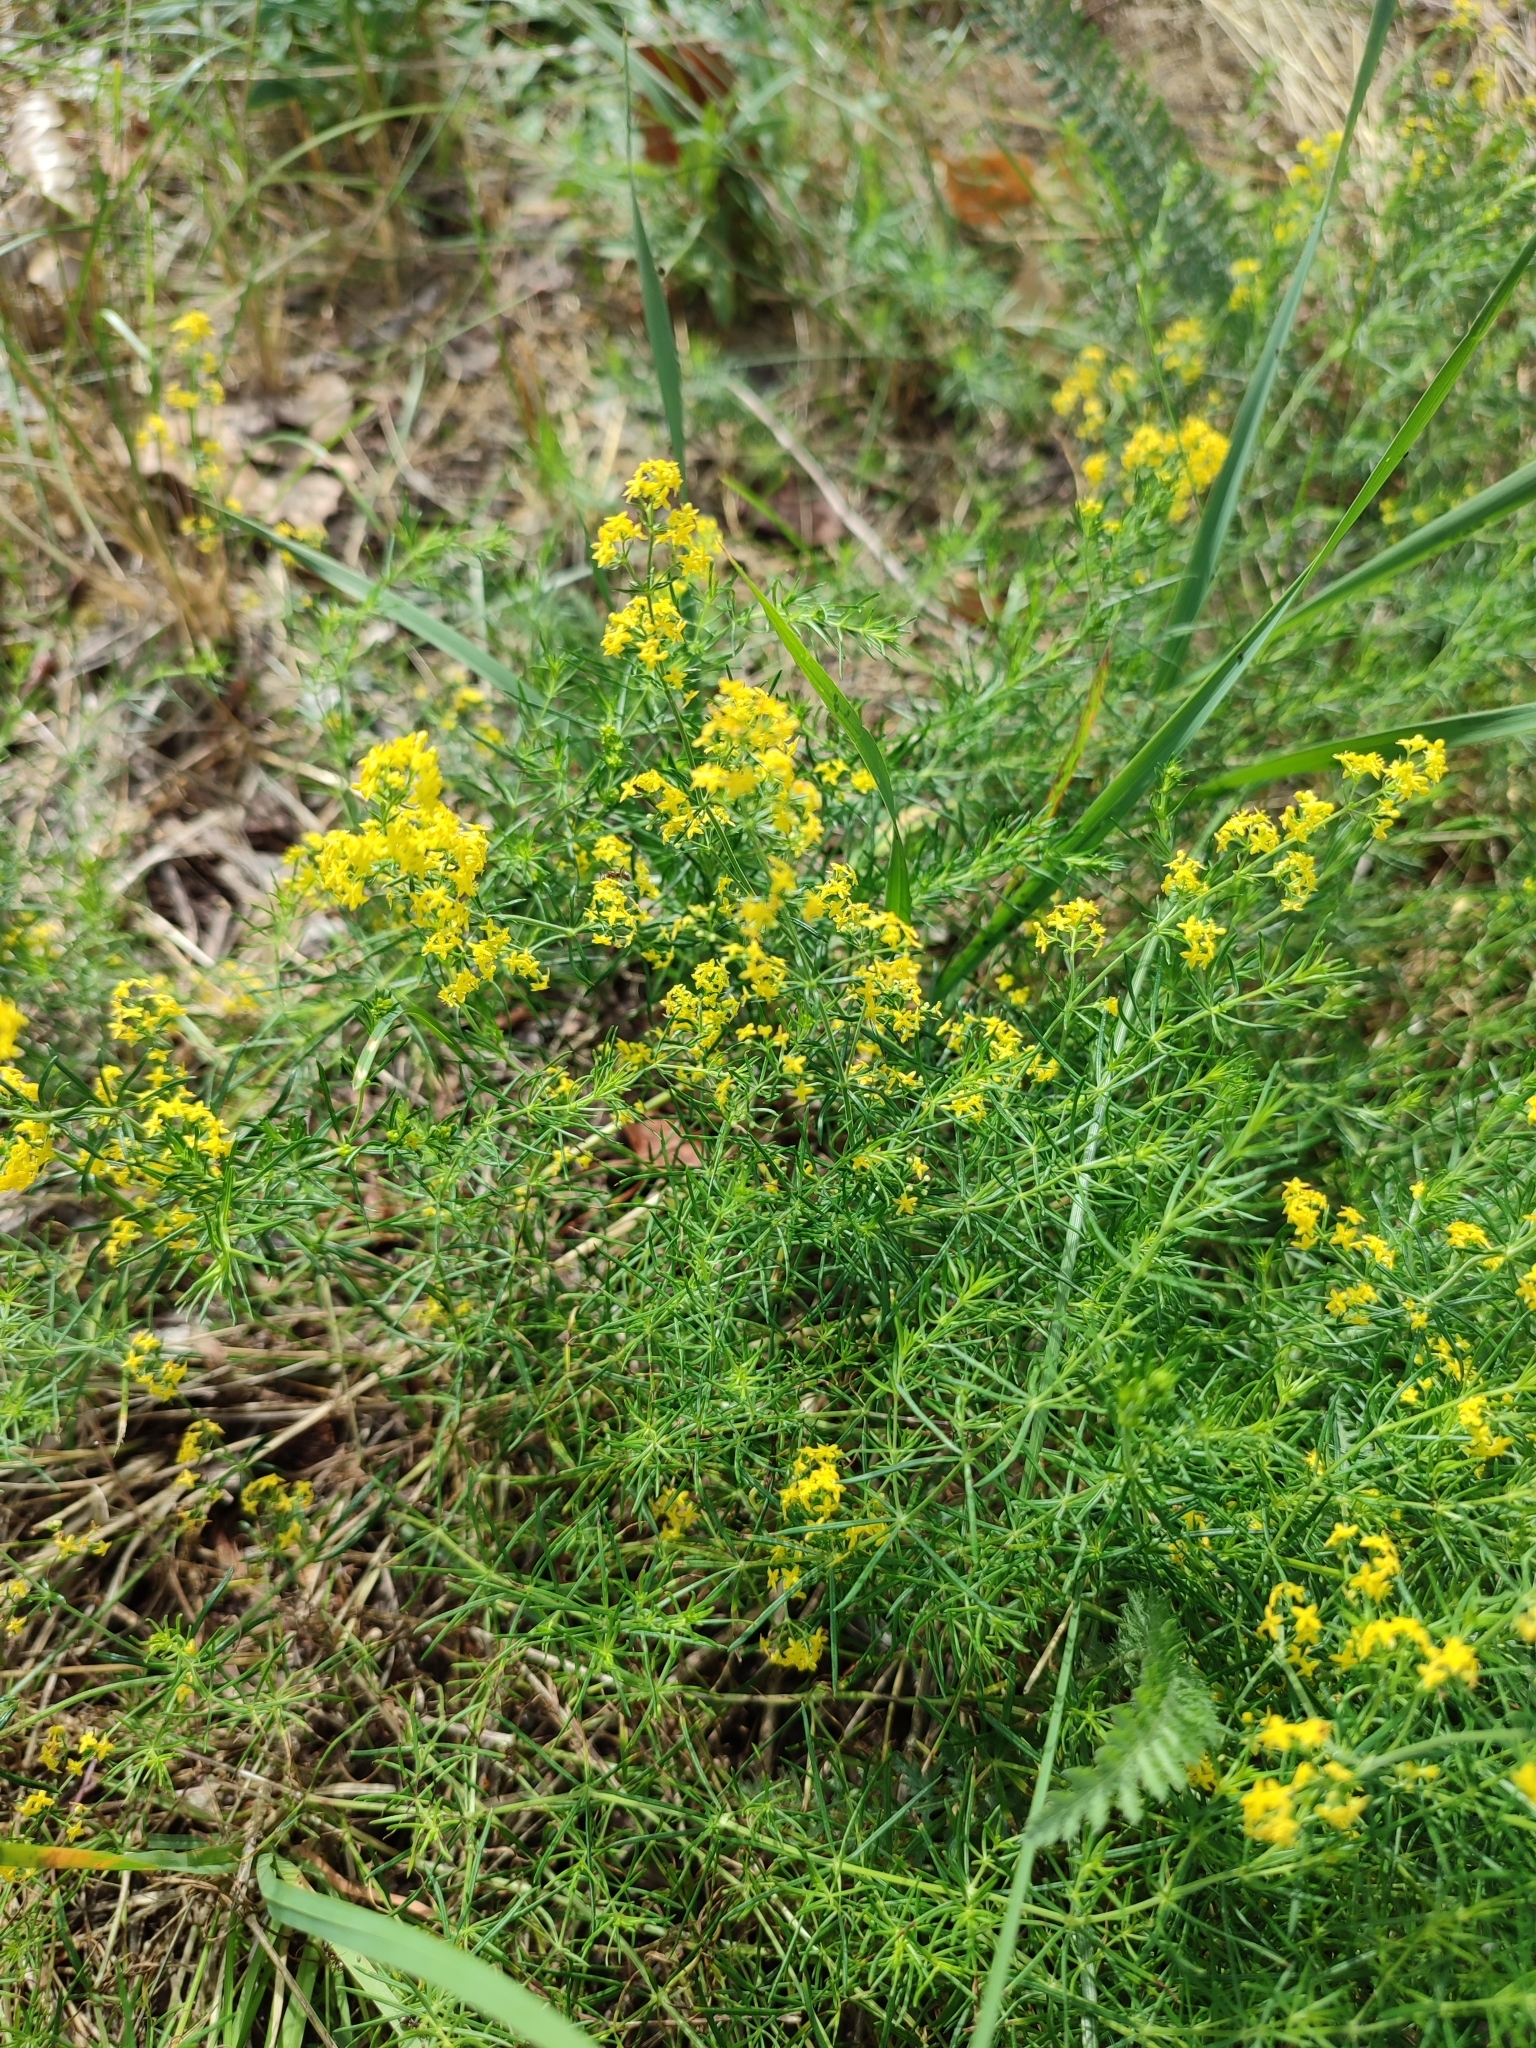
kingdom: Plantae
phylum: Tracheophyta
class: Magnoliopsida
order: Gentianales
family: Rubiaceae
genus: Galium
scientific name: Galium verum
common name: Lady's bedstraw
